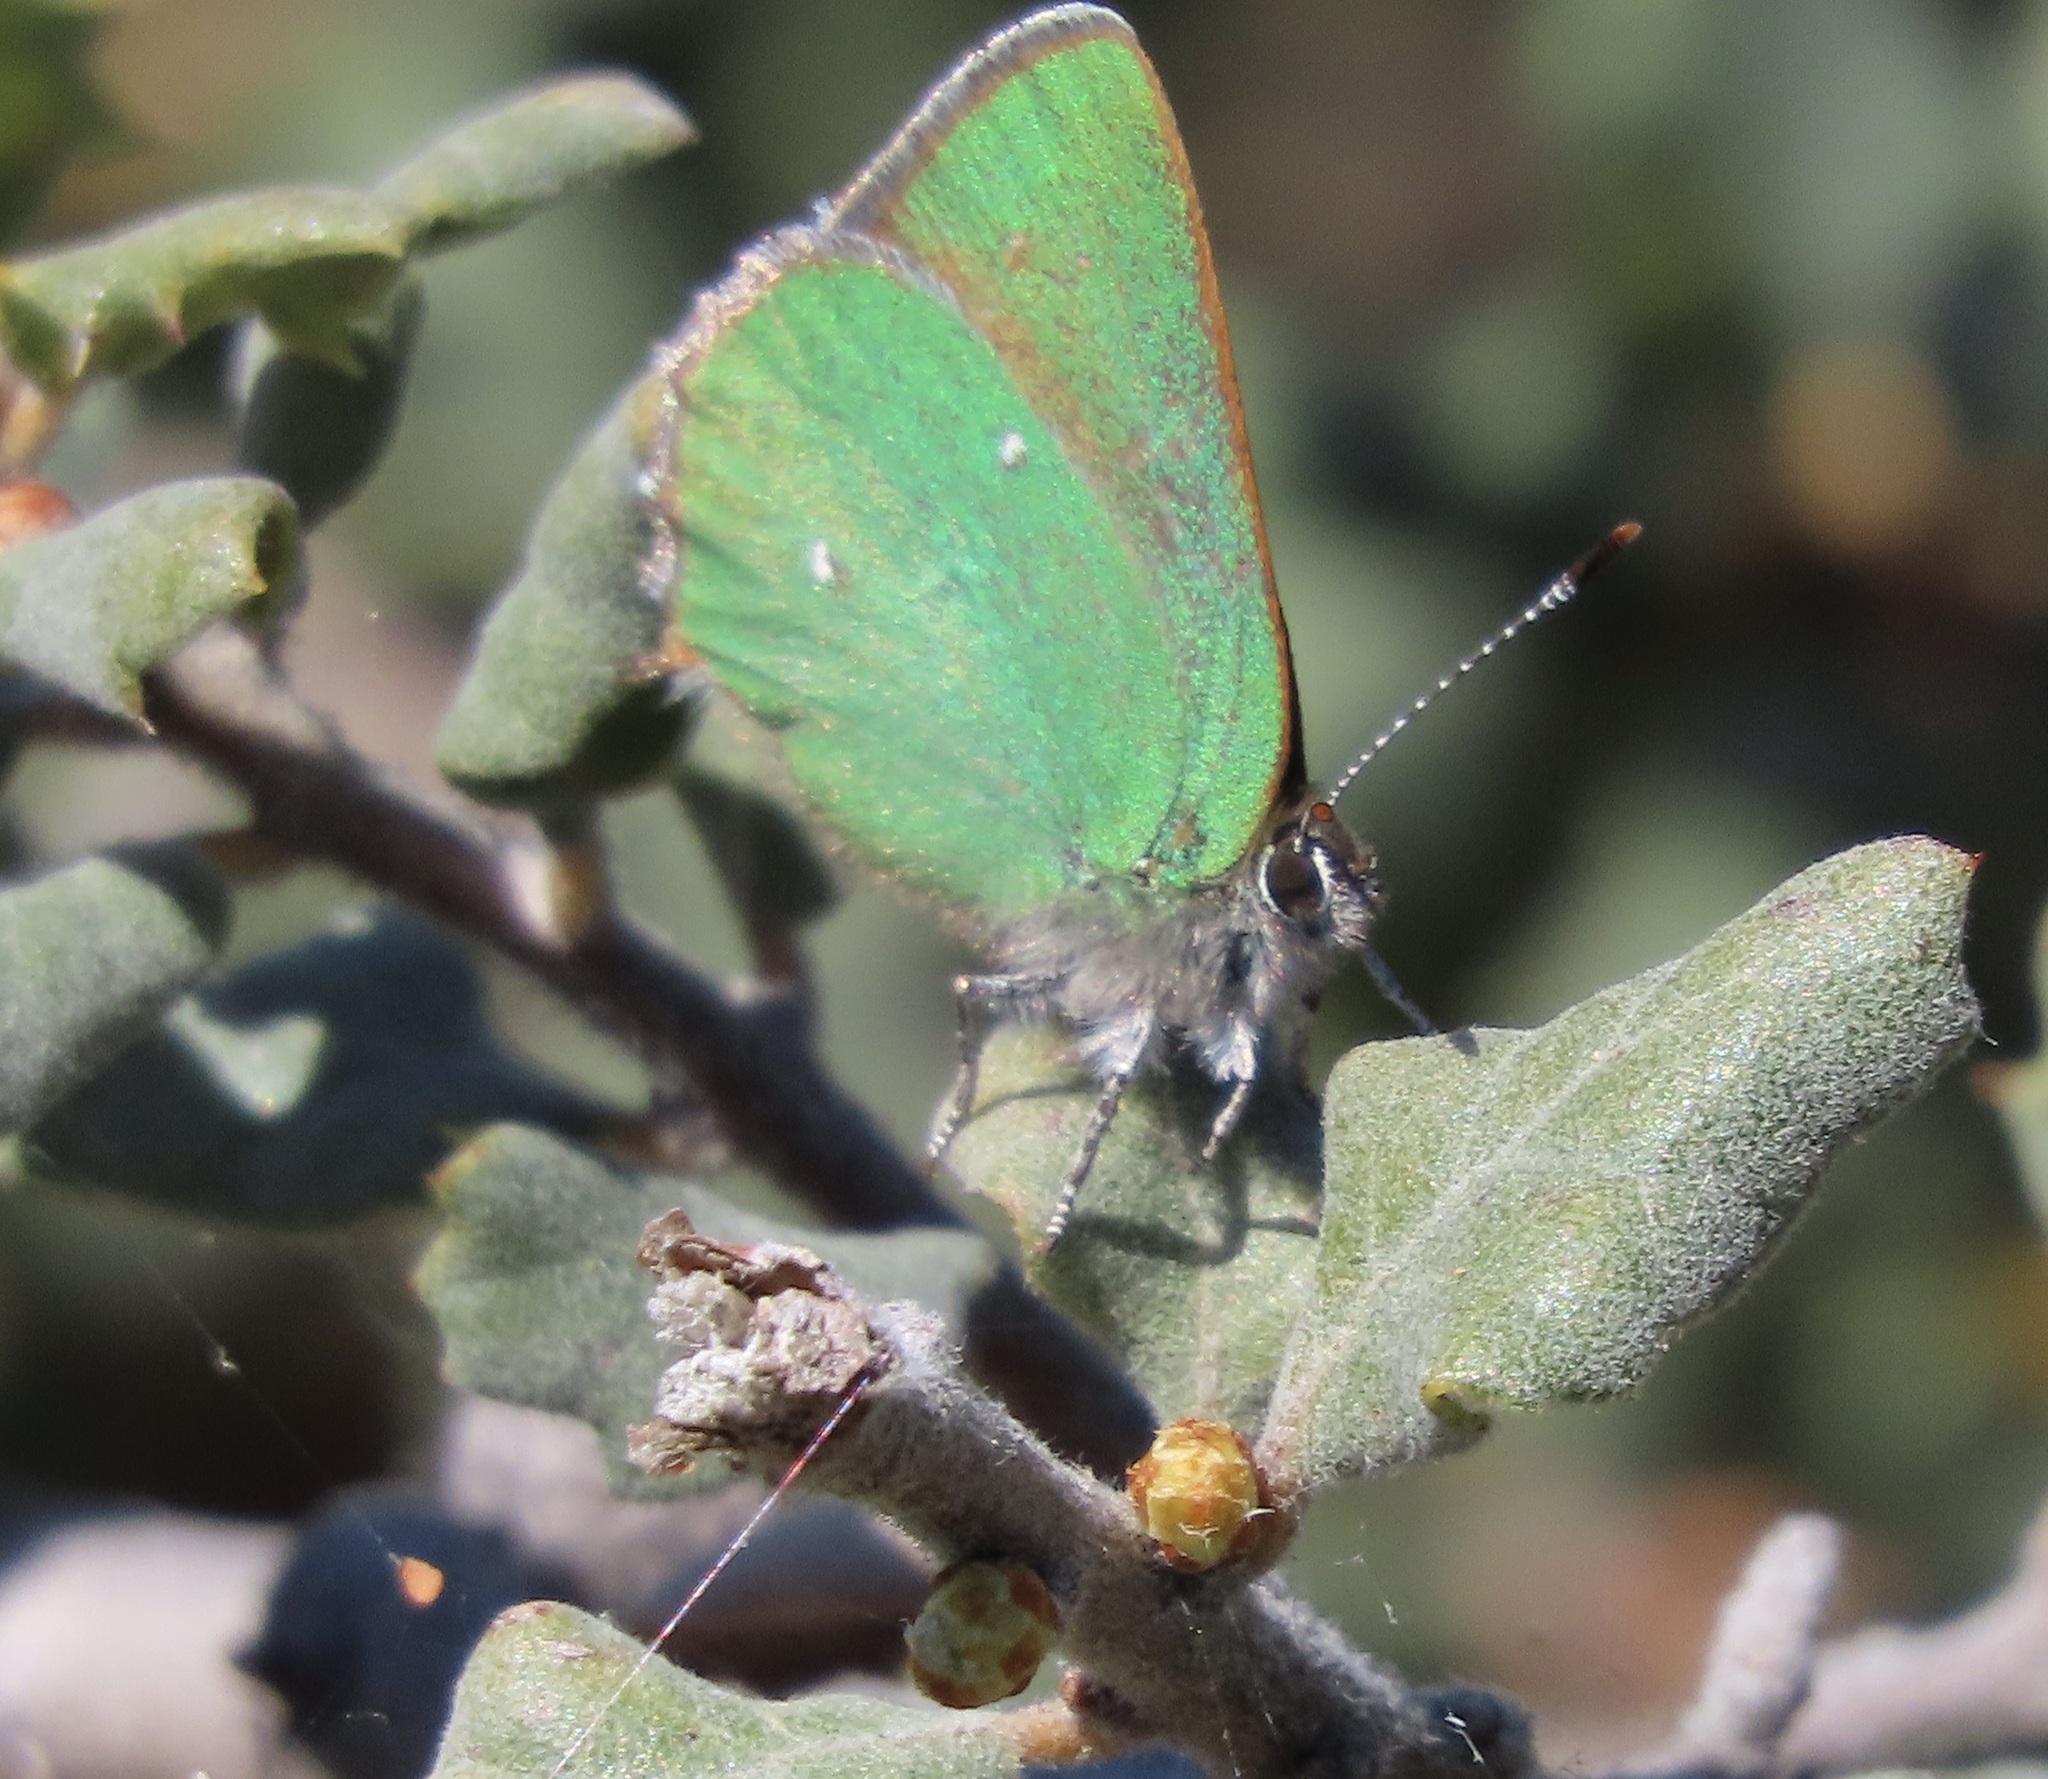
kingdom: Animalia
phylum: Arthropoda
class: Insecta
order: Lepidoptera
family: Lycaenidae
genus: Callophrys
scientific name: Callophrys dumetorum
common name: Bramble hairstreak
